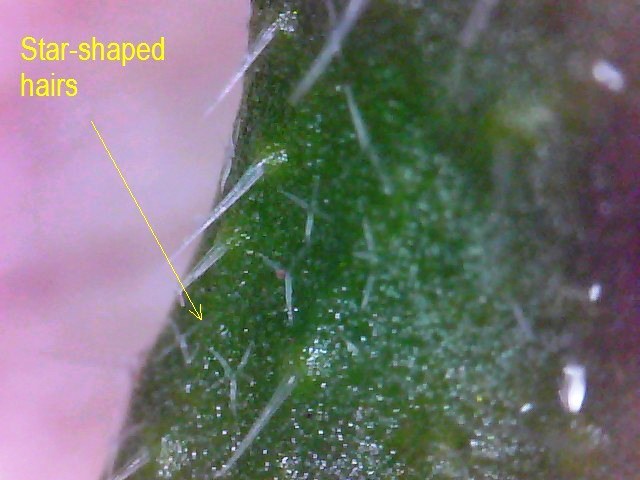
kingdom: Plantae
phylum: Tracheophyta
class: Magnoliopsida
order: Brassicales
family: Brassicaceae
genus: Capsella
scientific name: Capsella bursa-pastoris
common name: Shepherd's purse
